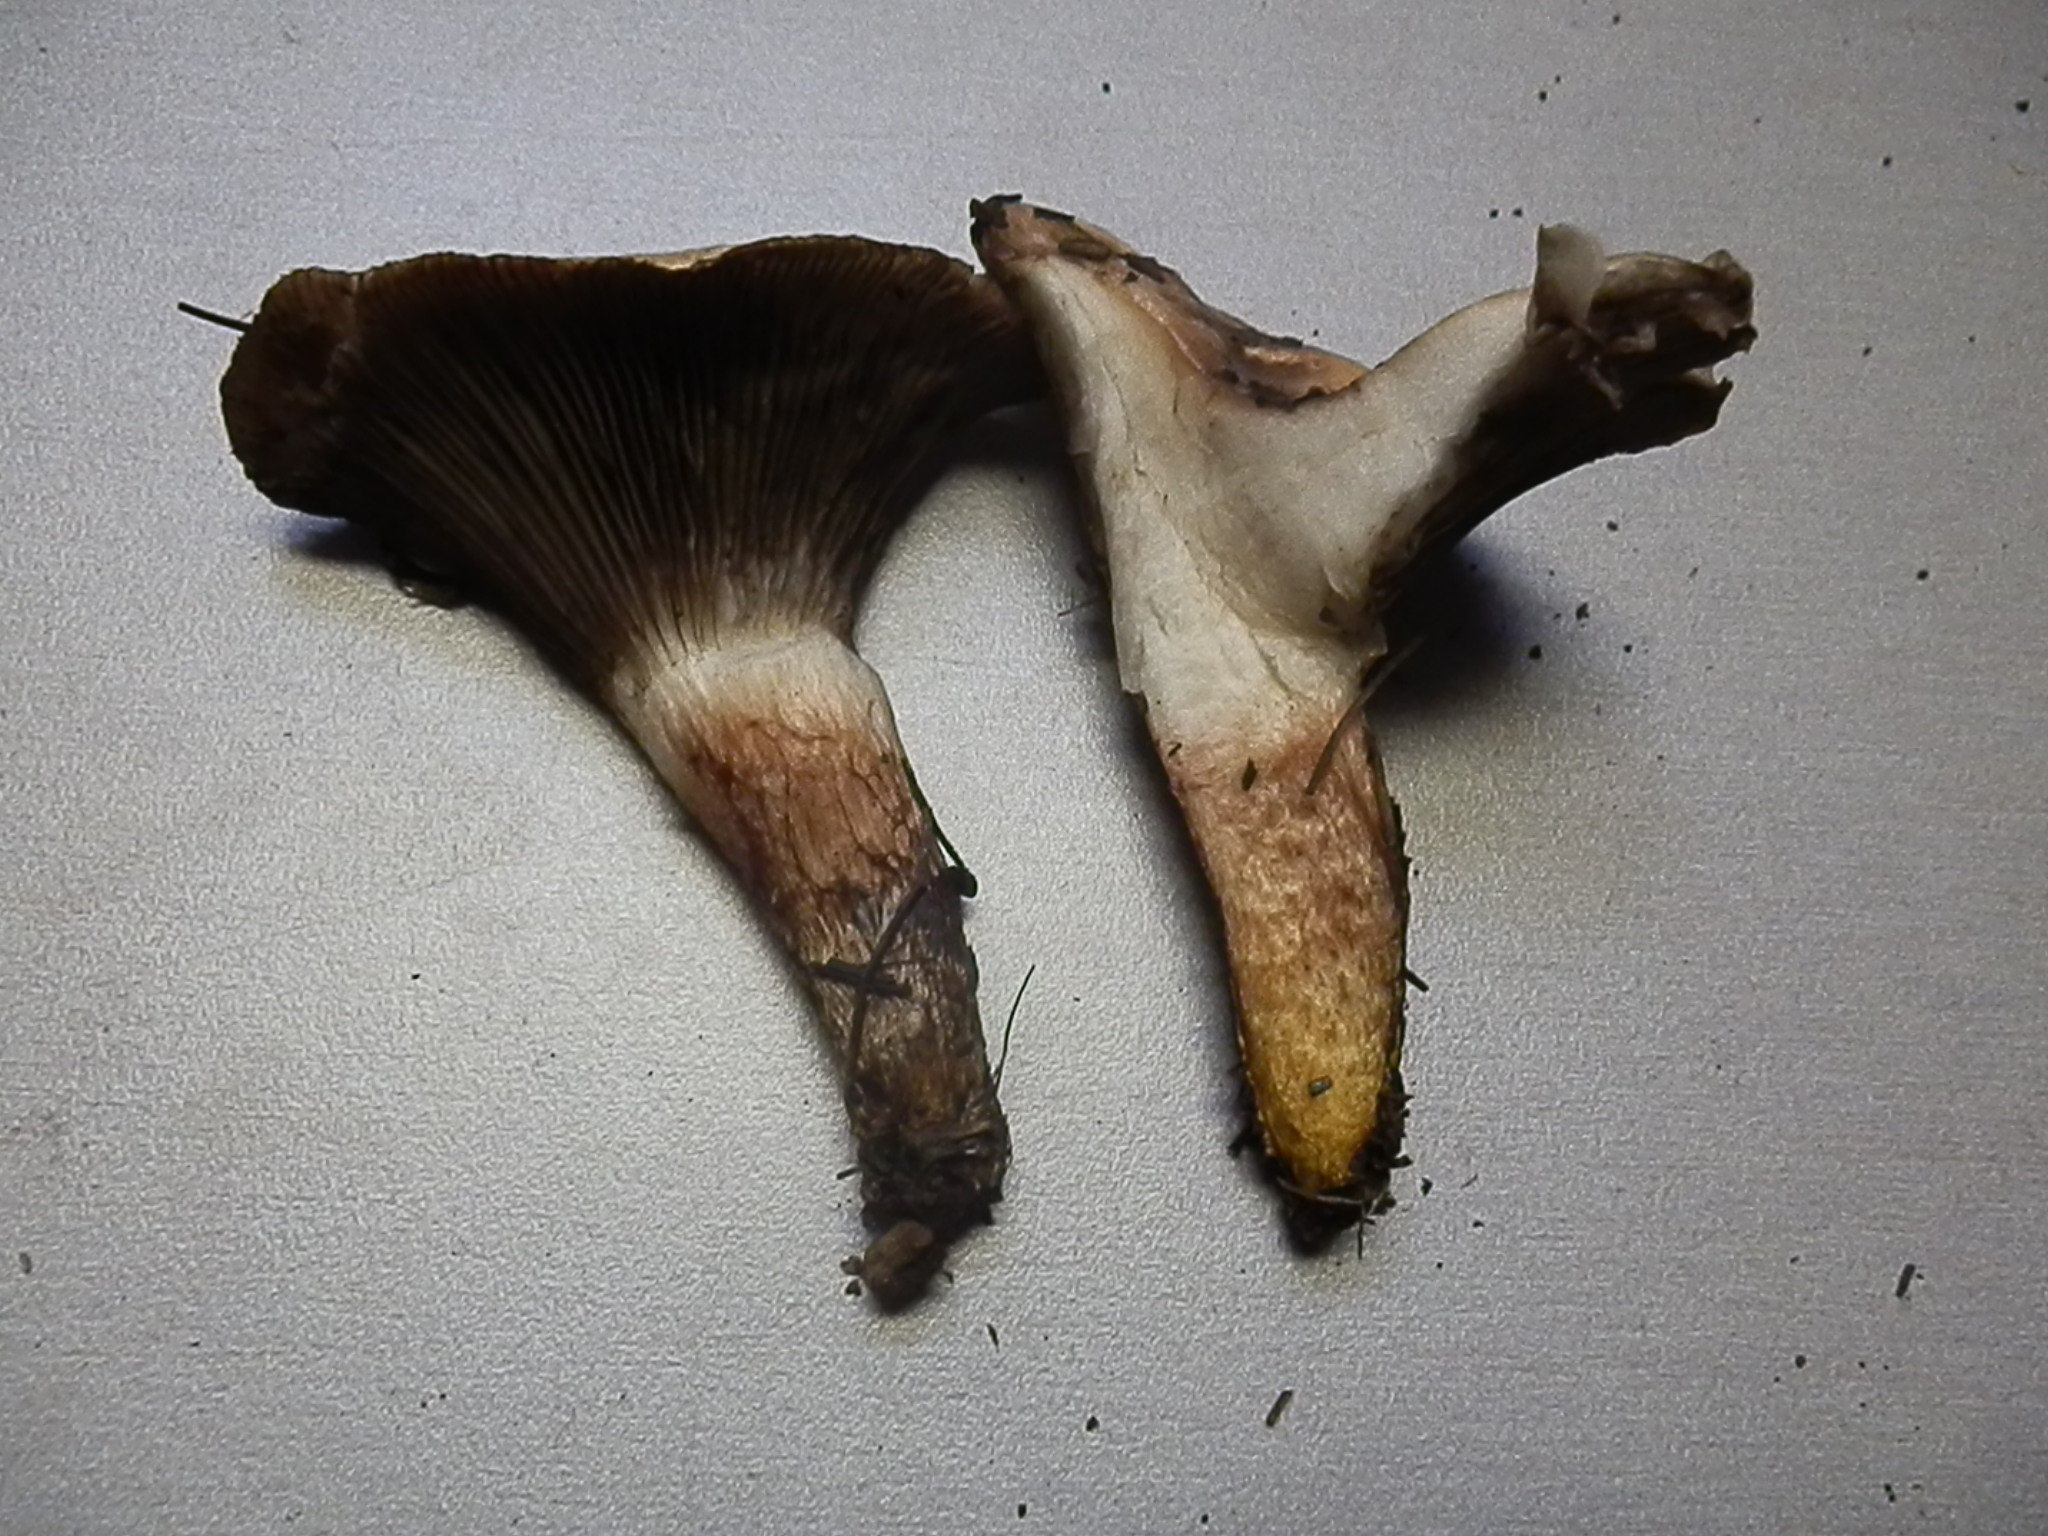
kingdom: Fungi
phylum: Basidiomycota
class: Agaricomycetes
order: Boletales
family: Gomphidiaceae
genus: Gomphidius
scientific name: Gomphidius smithii
